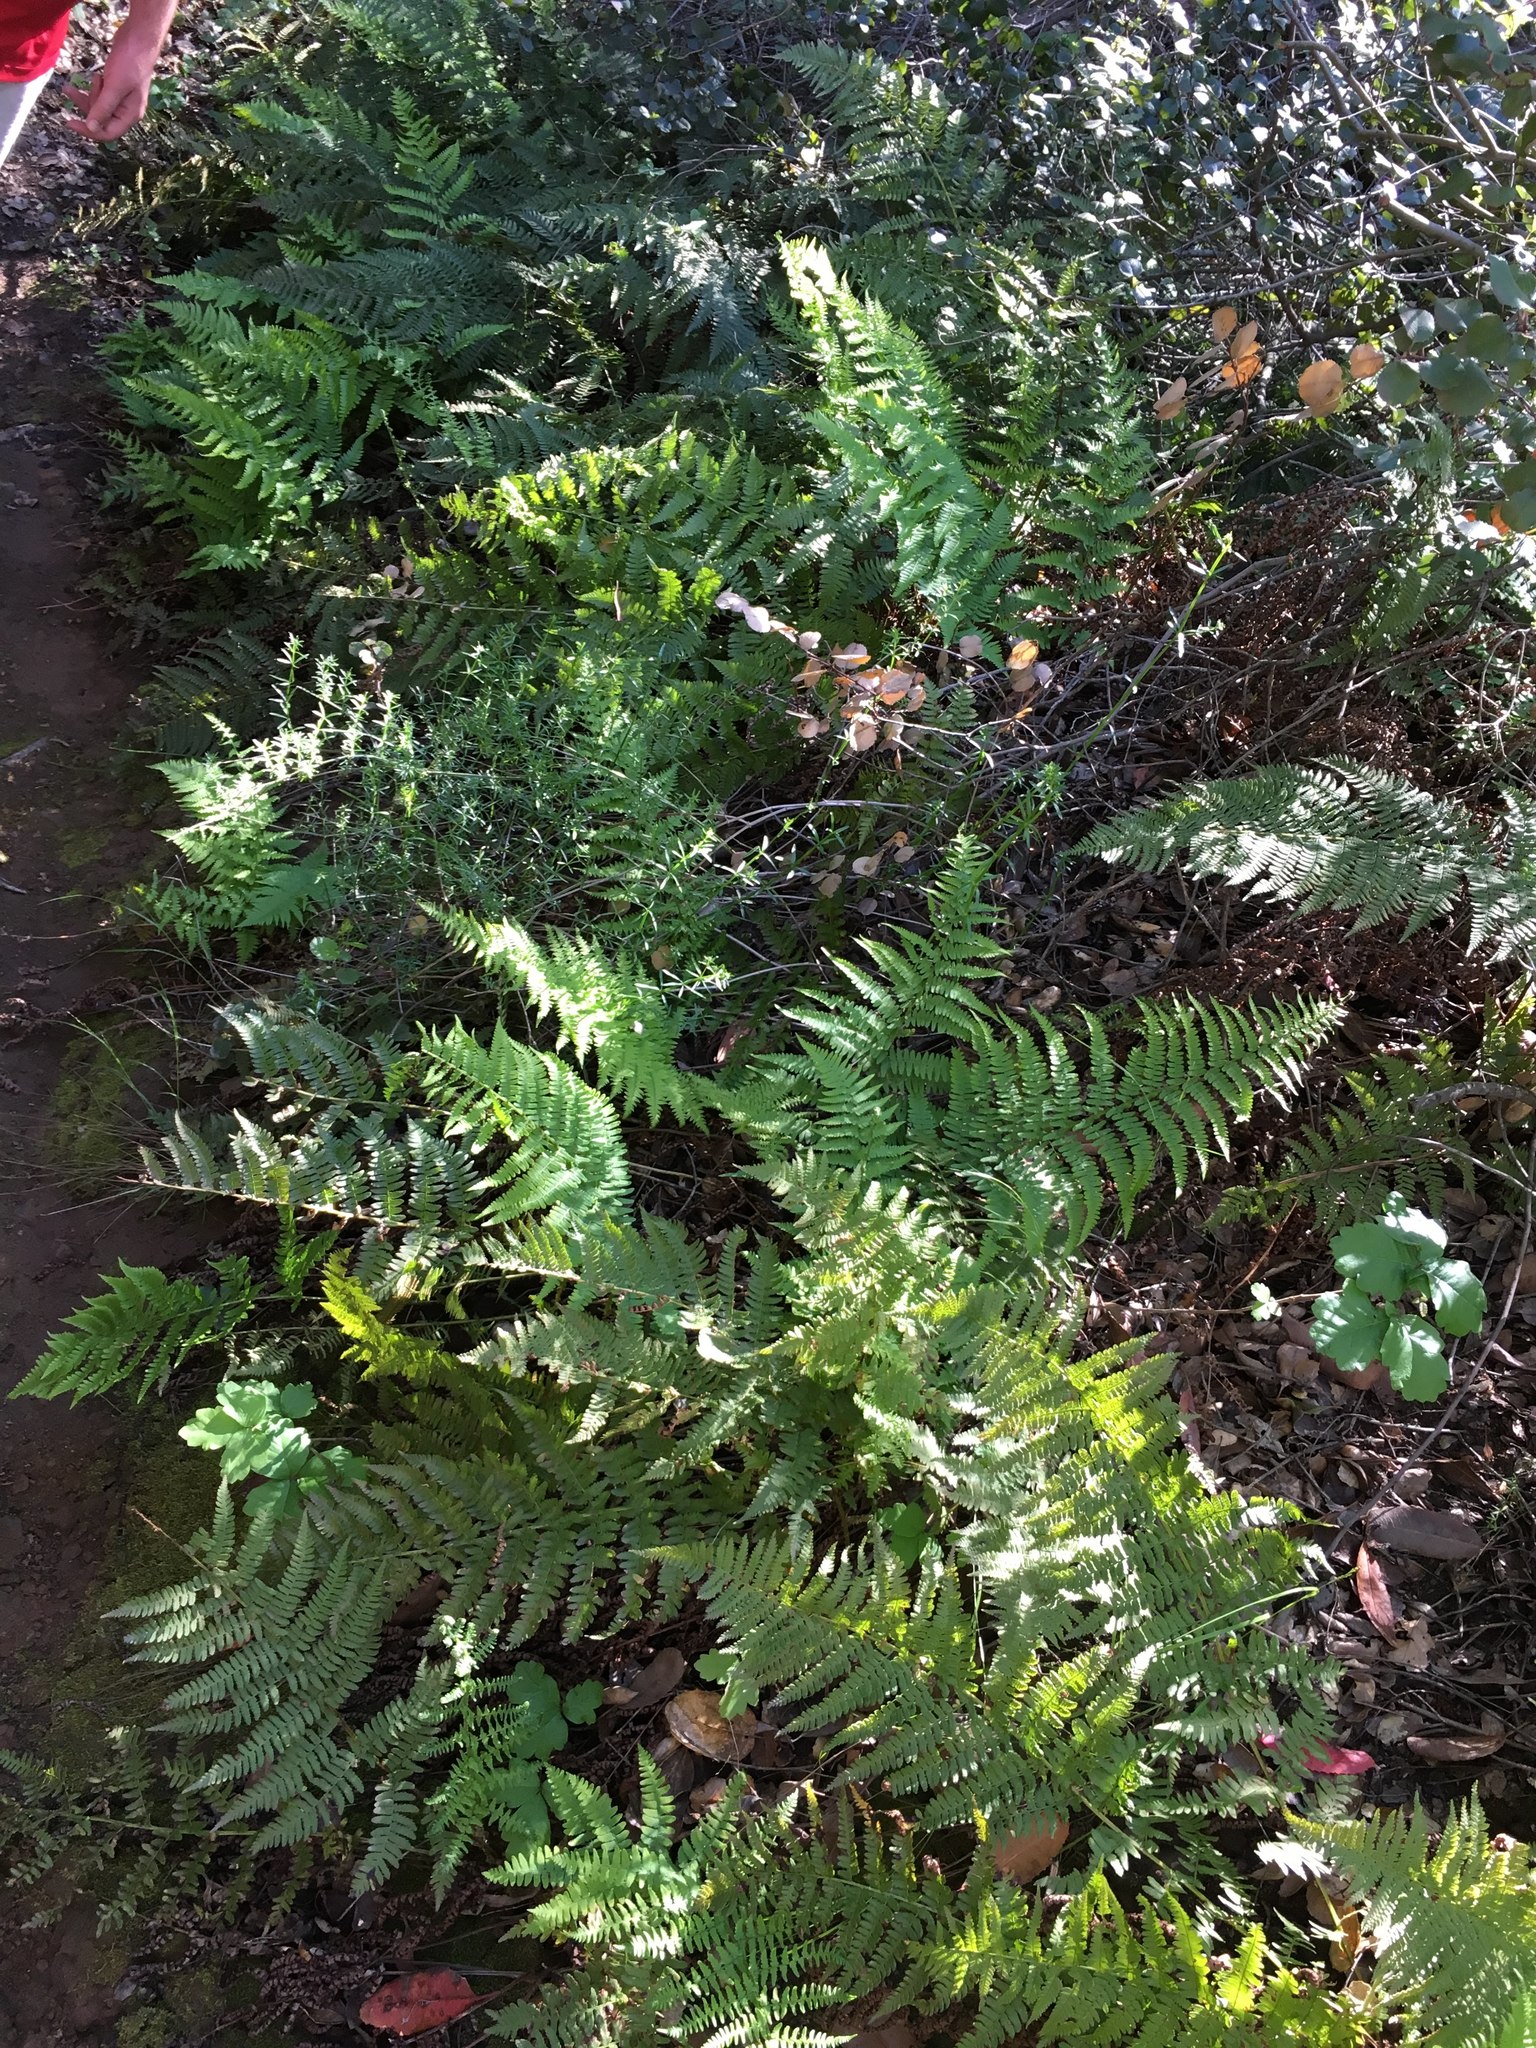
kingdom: Plantae
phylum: Tracheophyta
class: Polypodiopsida
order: Polypodiales
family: Dryopteridaceae
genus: Dryopteris
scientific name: Dryopteris arguta
